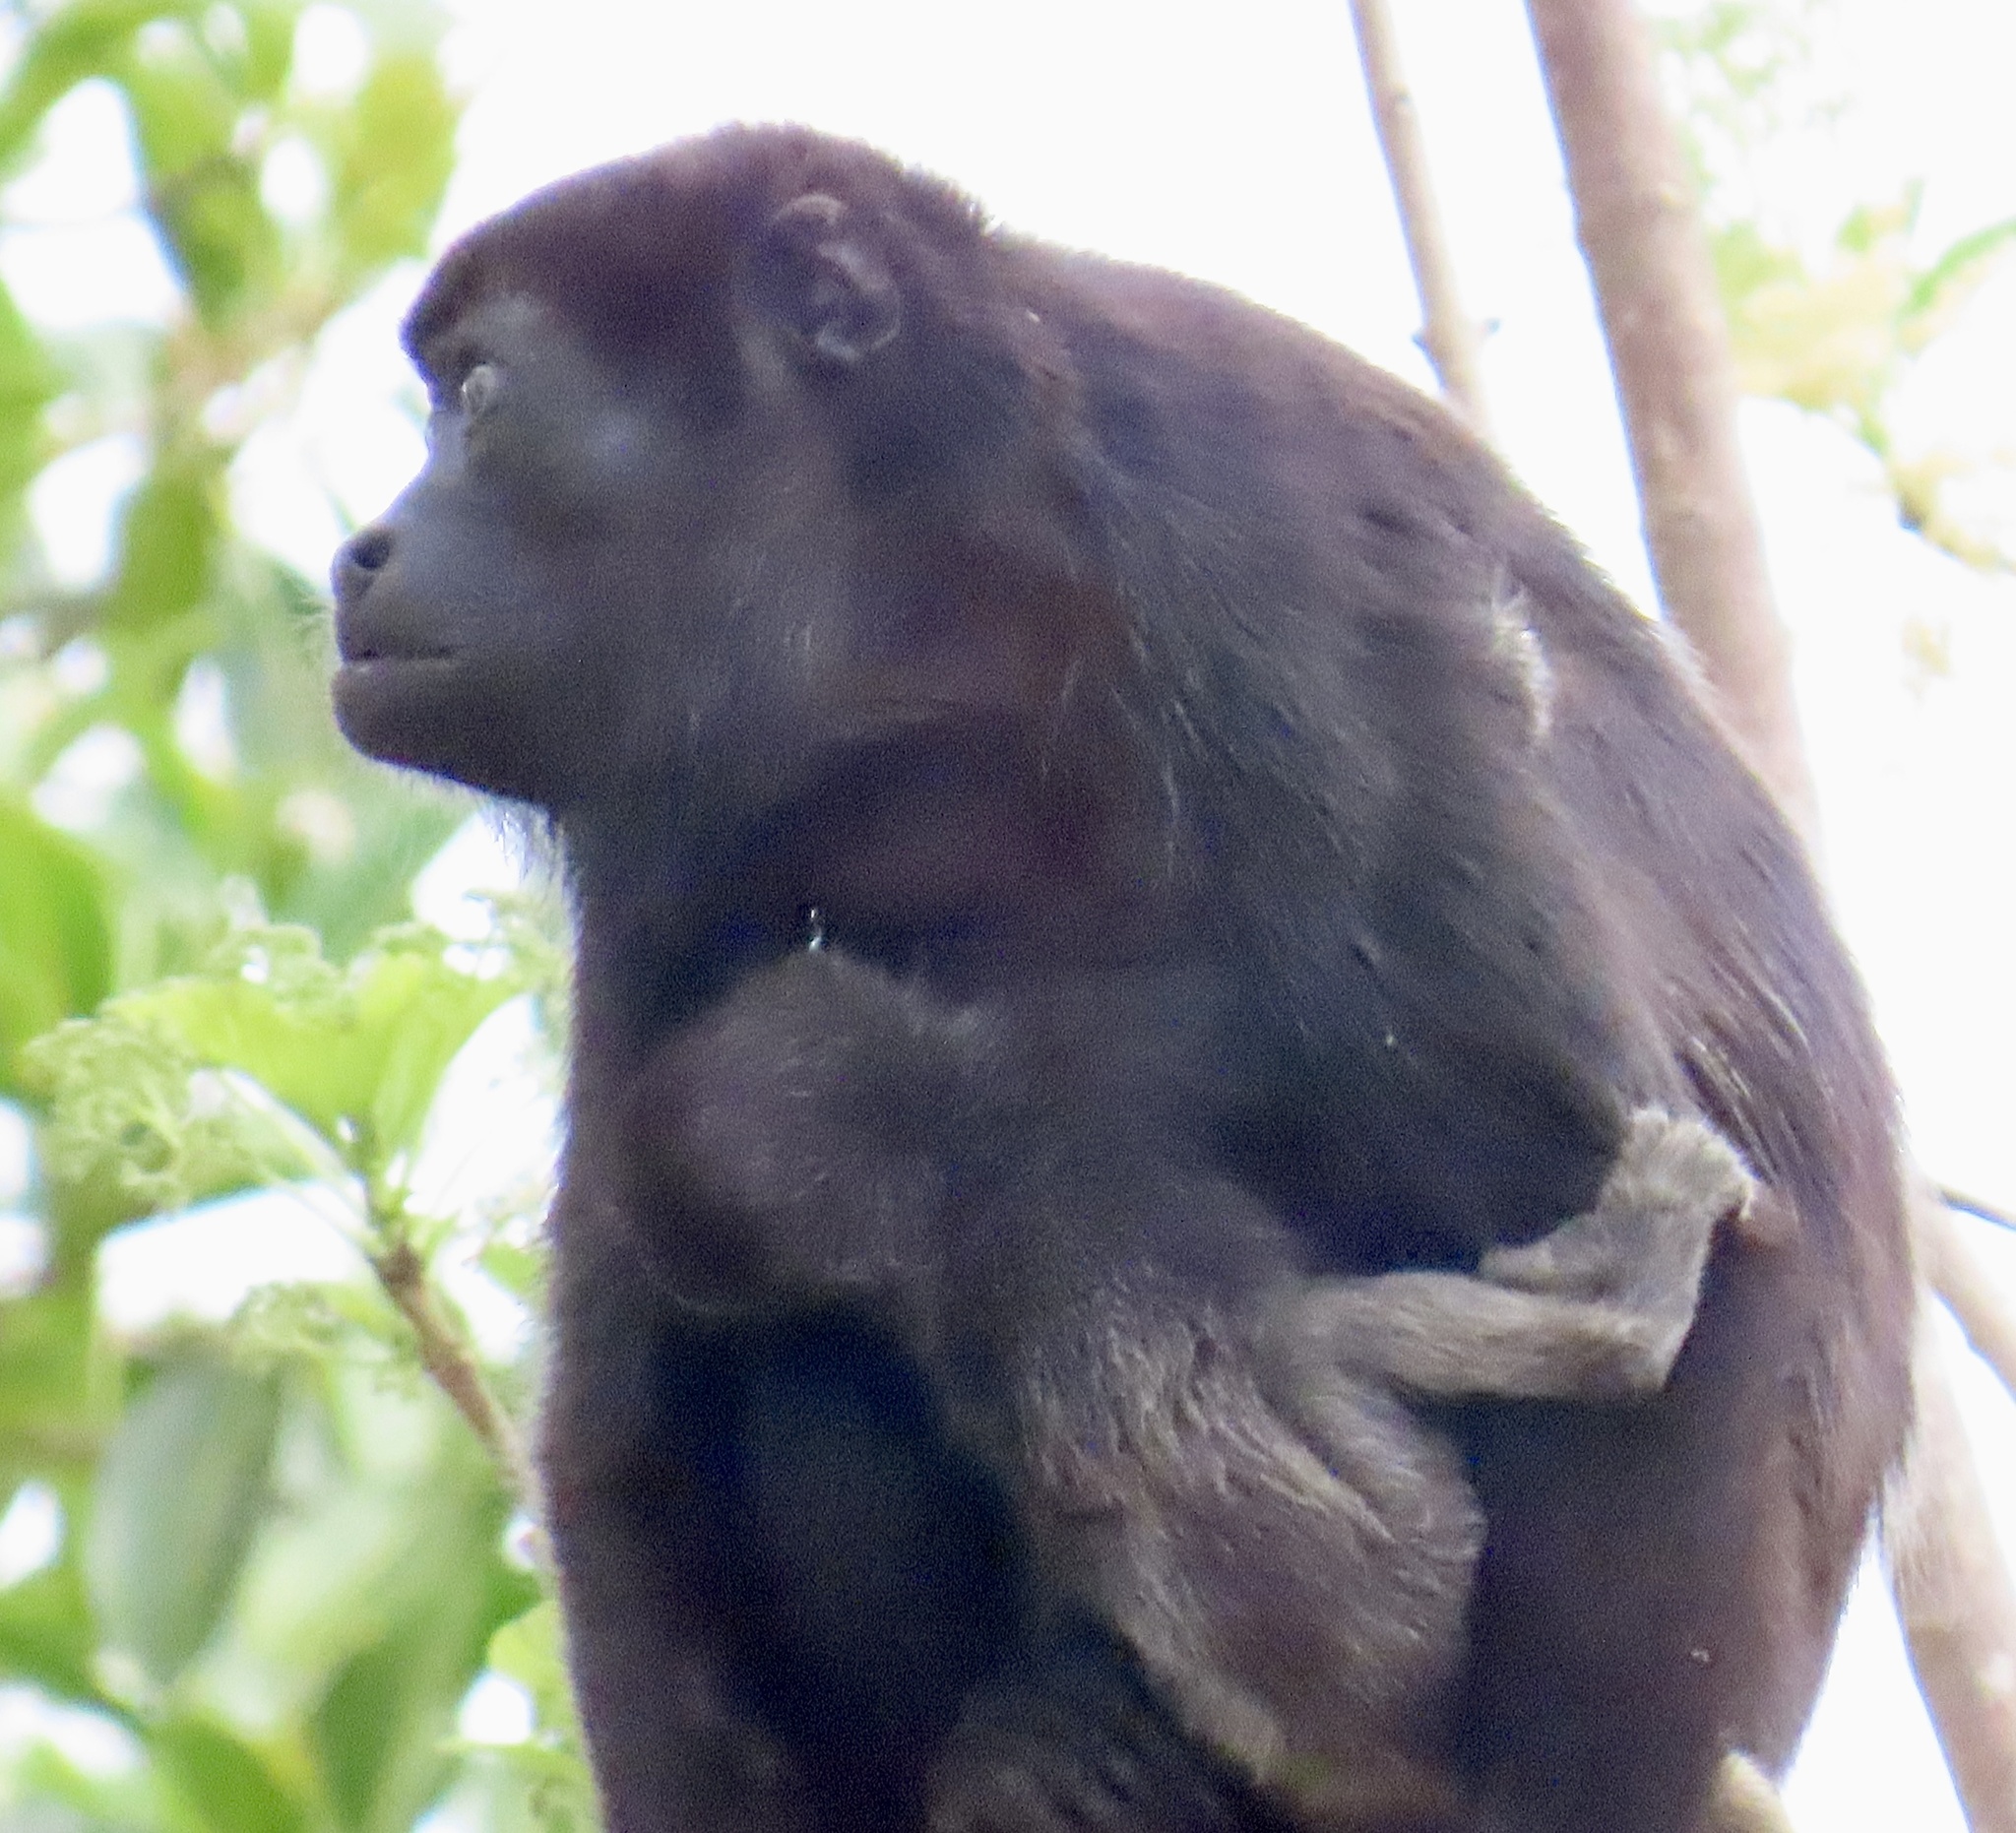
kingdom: Animalia
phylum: Chordata
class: Mammalia
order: Primates
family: Atelidae
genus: Alouatta
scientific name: Alouatta palliata
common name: Mantled howler
